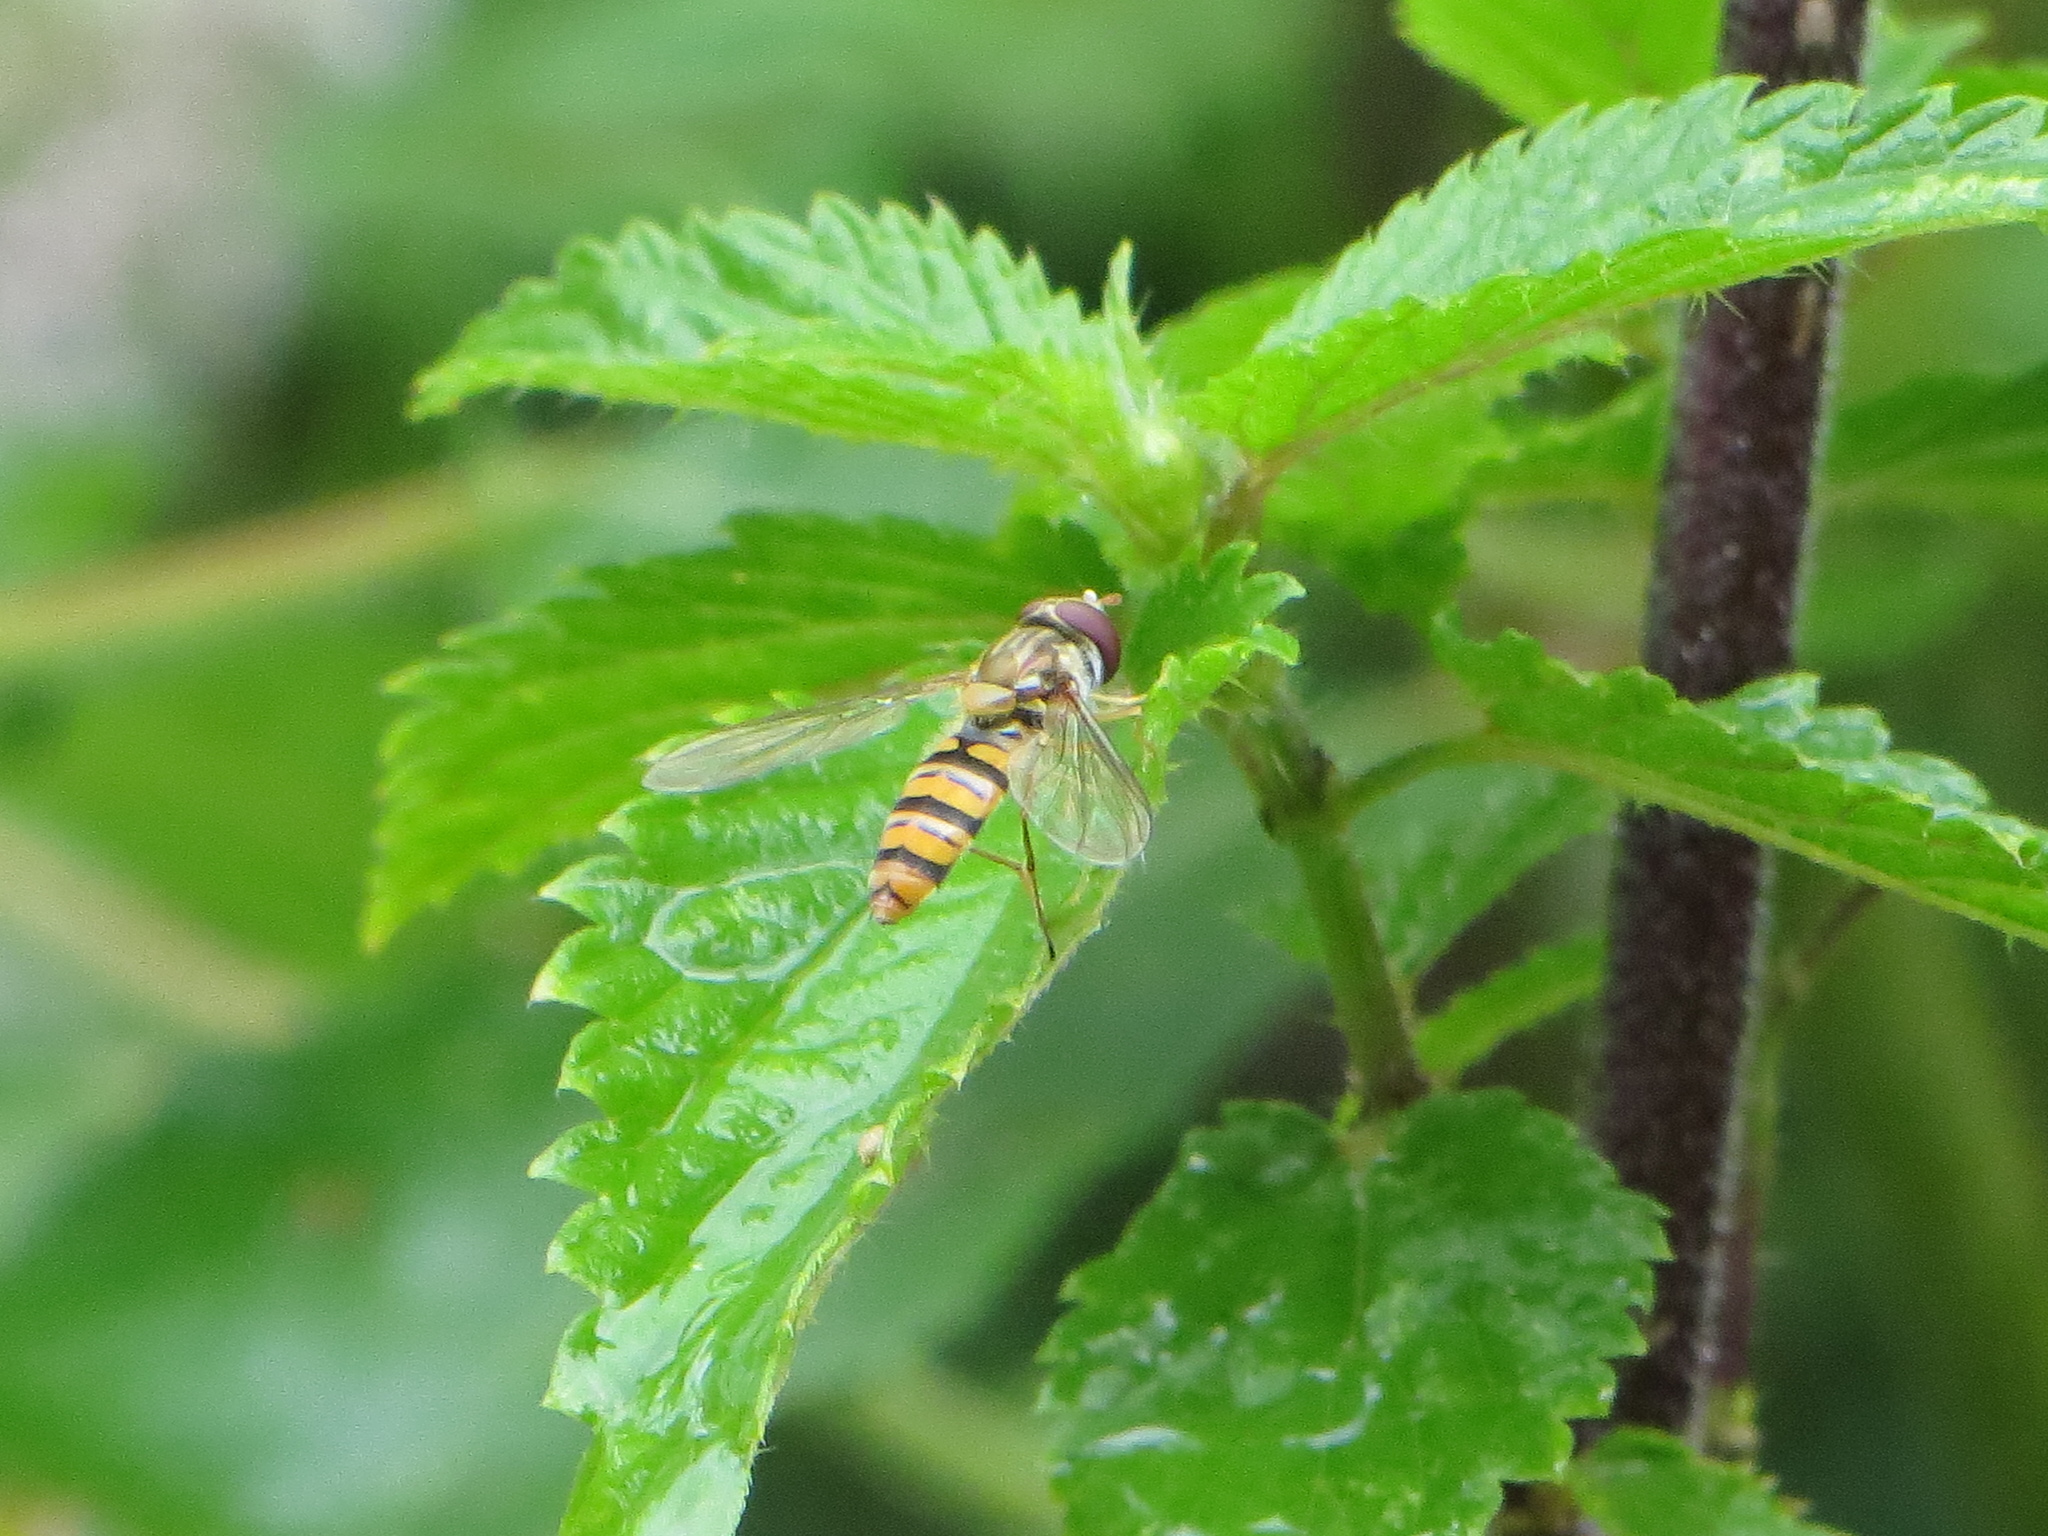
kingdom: Animalia
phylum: Arthropoda
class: Insecta
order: Diptera
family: Syrphidae
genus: Episyrphus
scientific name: Episyrphus balteatus
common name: Marmalade hoverfly
